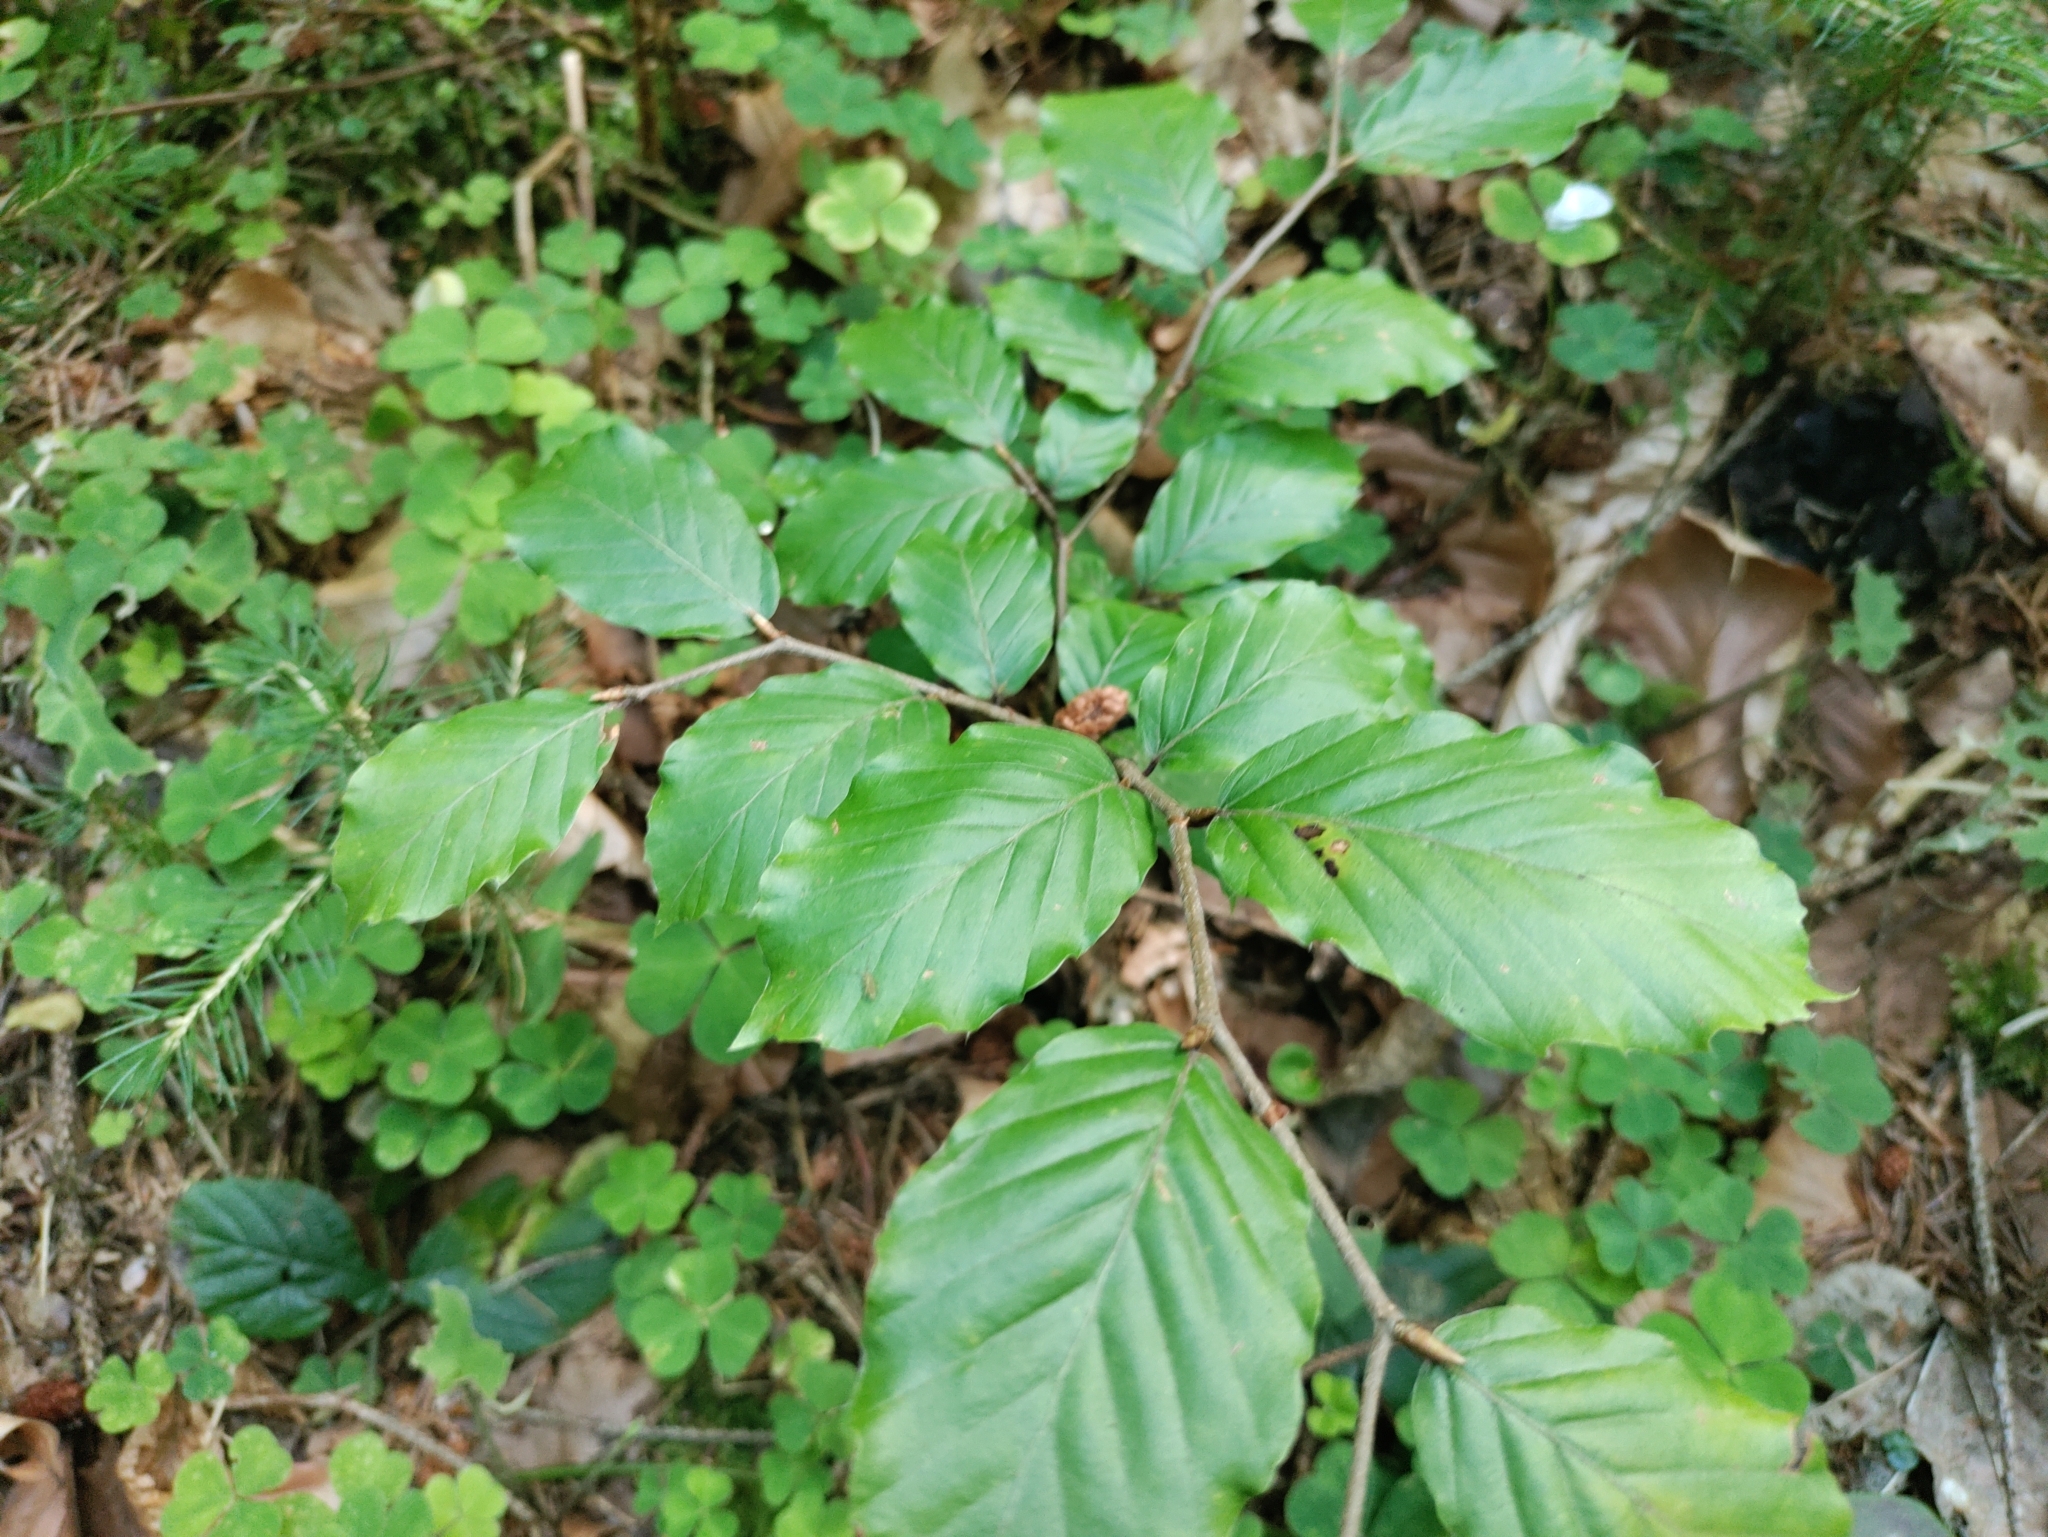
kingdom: Plantae
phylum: Tracheophyta
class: Magnoliopsida
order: Fagales
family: Fagaceae
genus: Fagus
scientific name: Fagus sylvatica
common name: Beech
